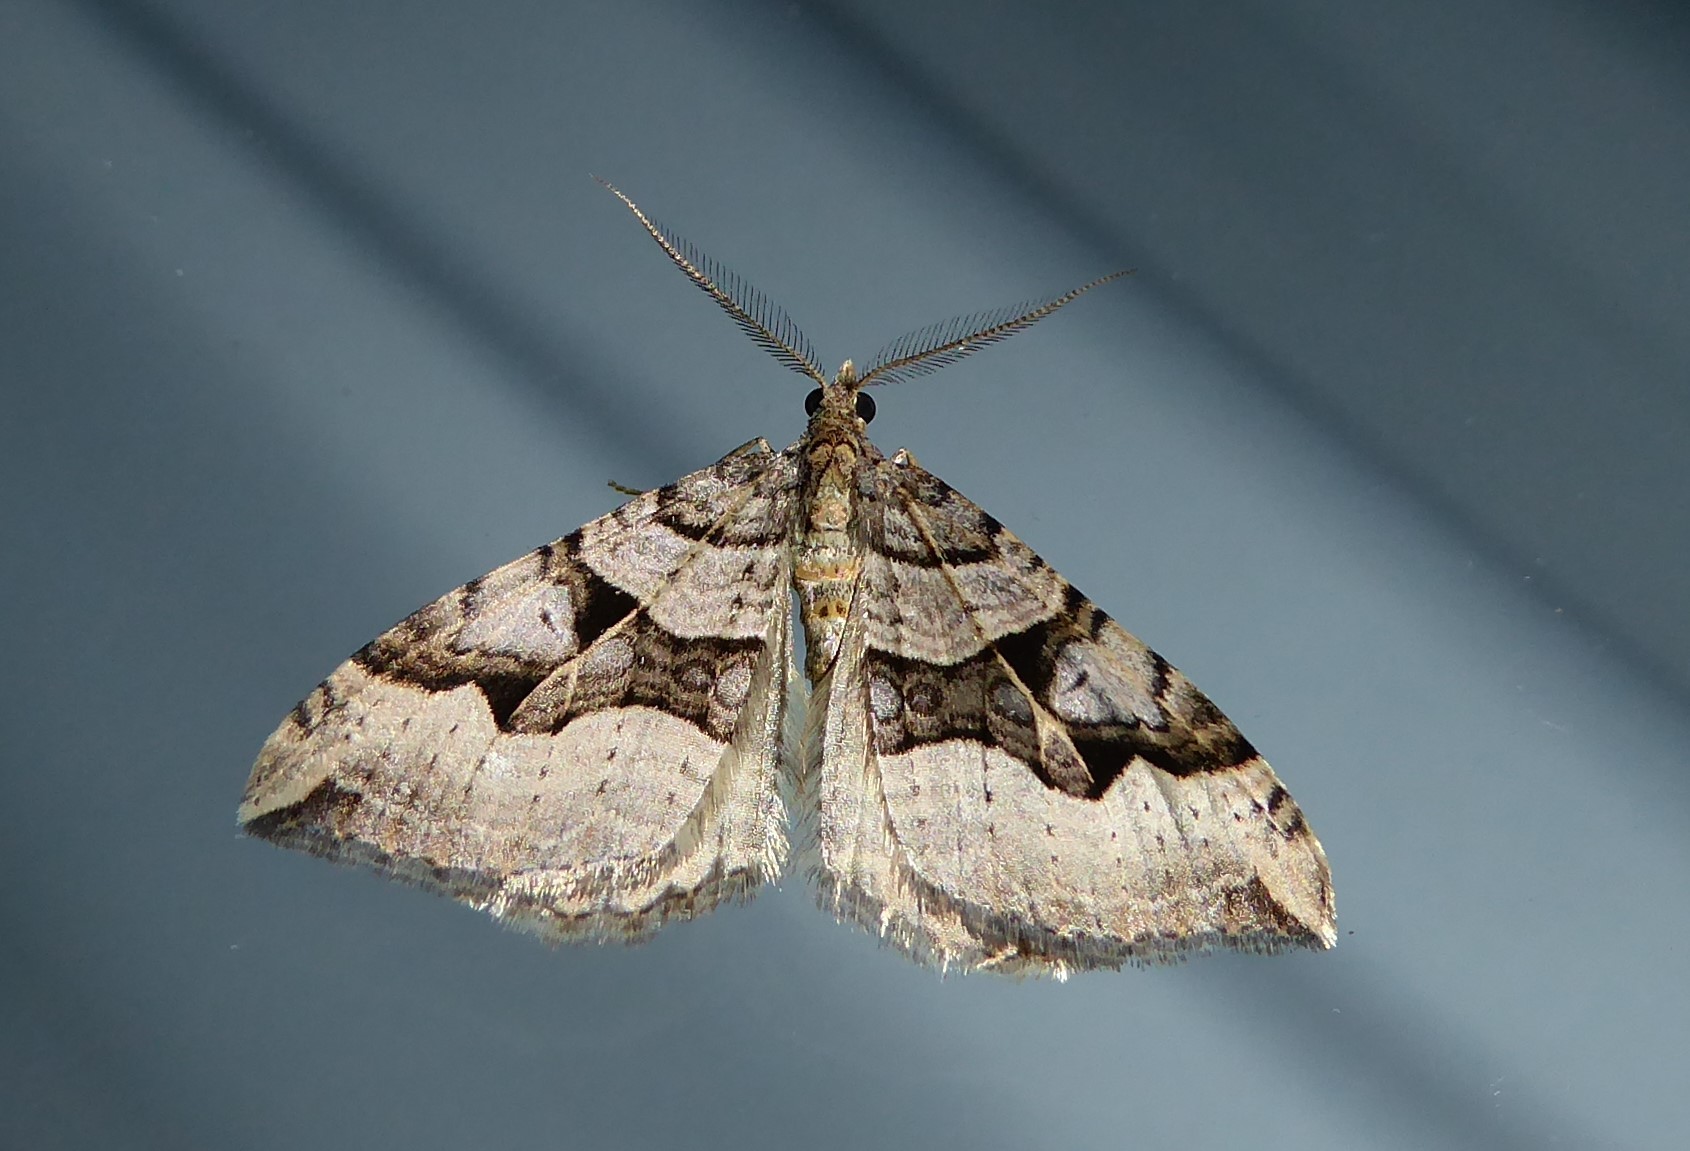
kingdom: Animalia
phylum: Arthropoda
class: Insecta
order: Lepidoptera
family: Geometridae
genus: Xanthorhoe
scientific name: Xanthorhoe semifissata
